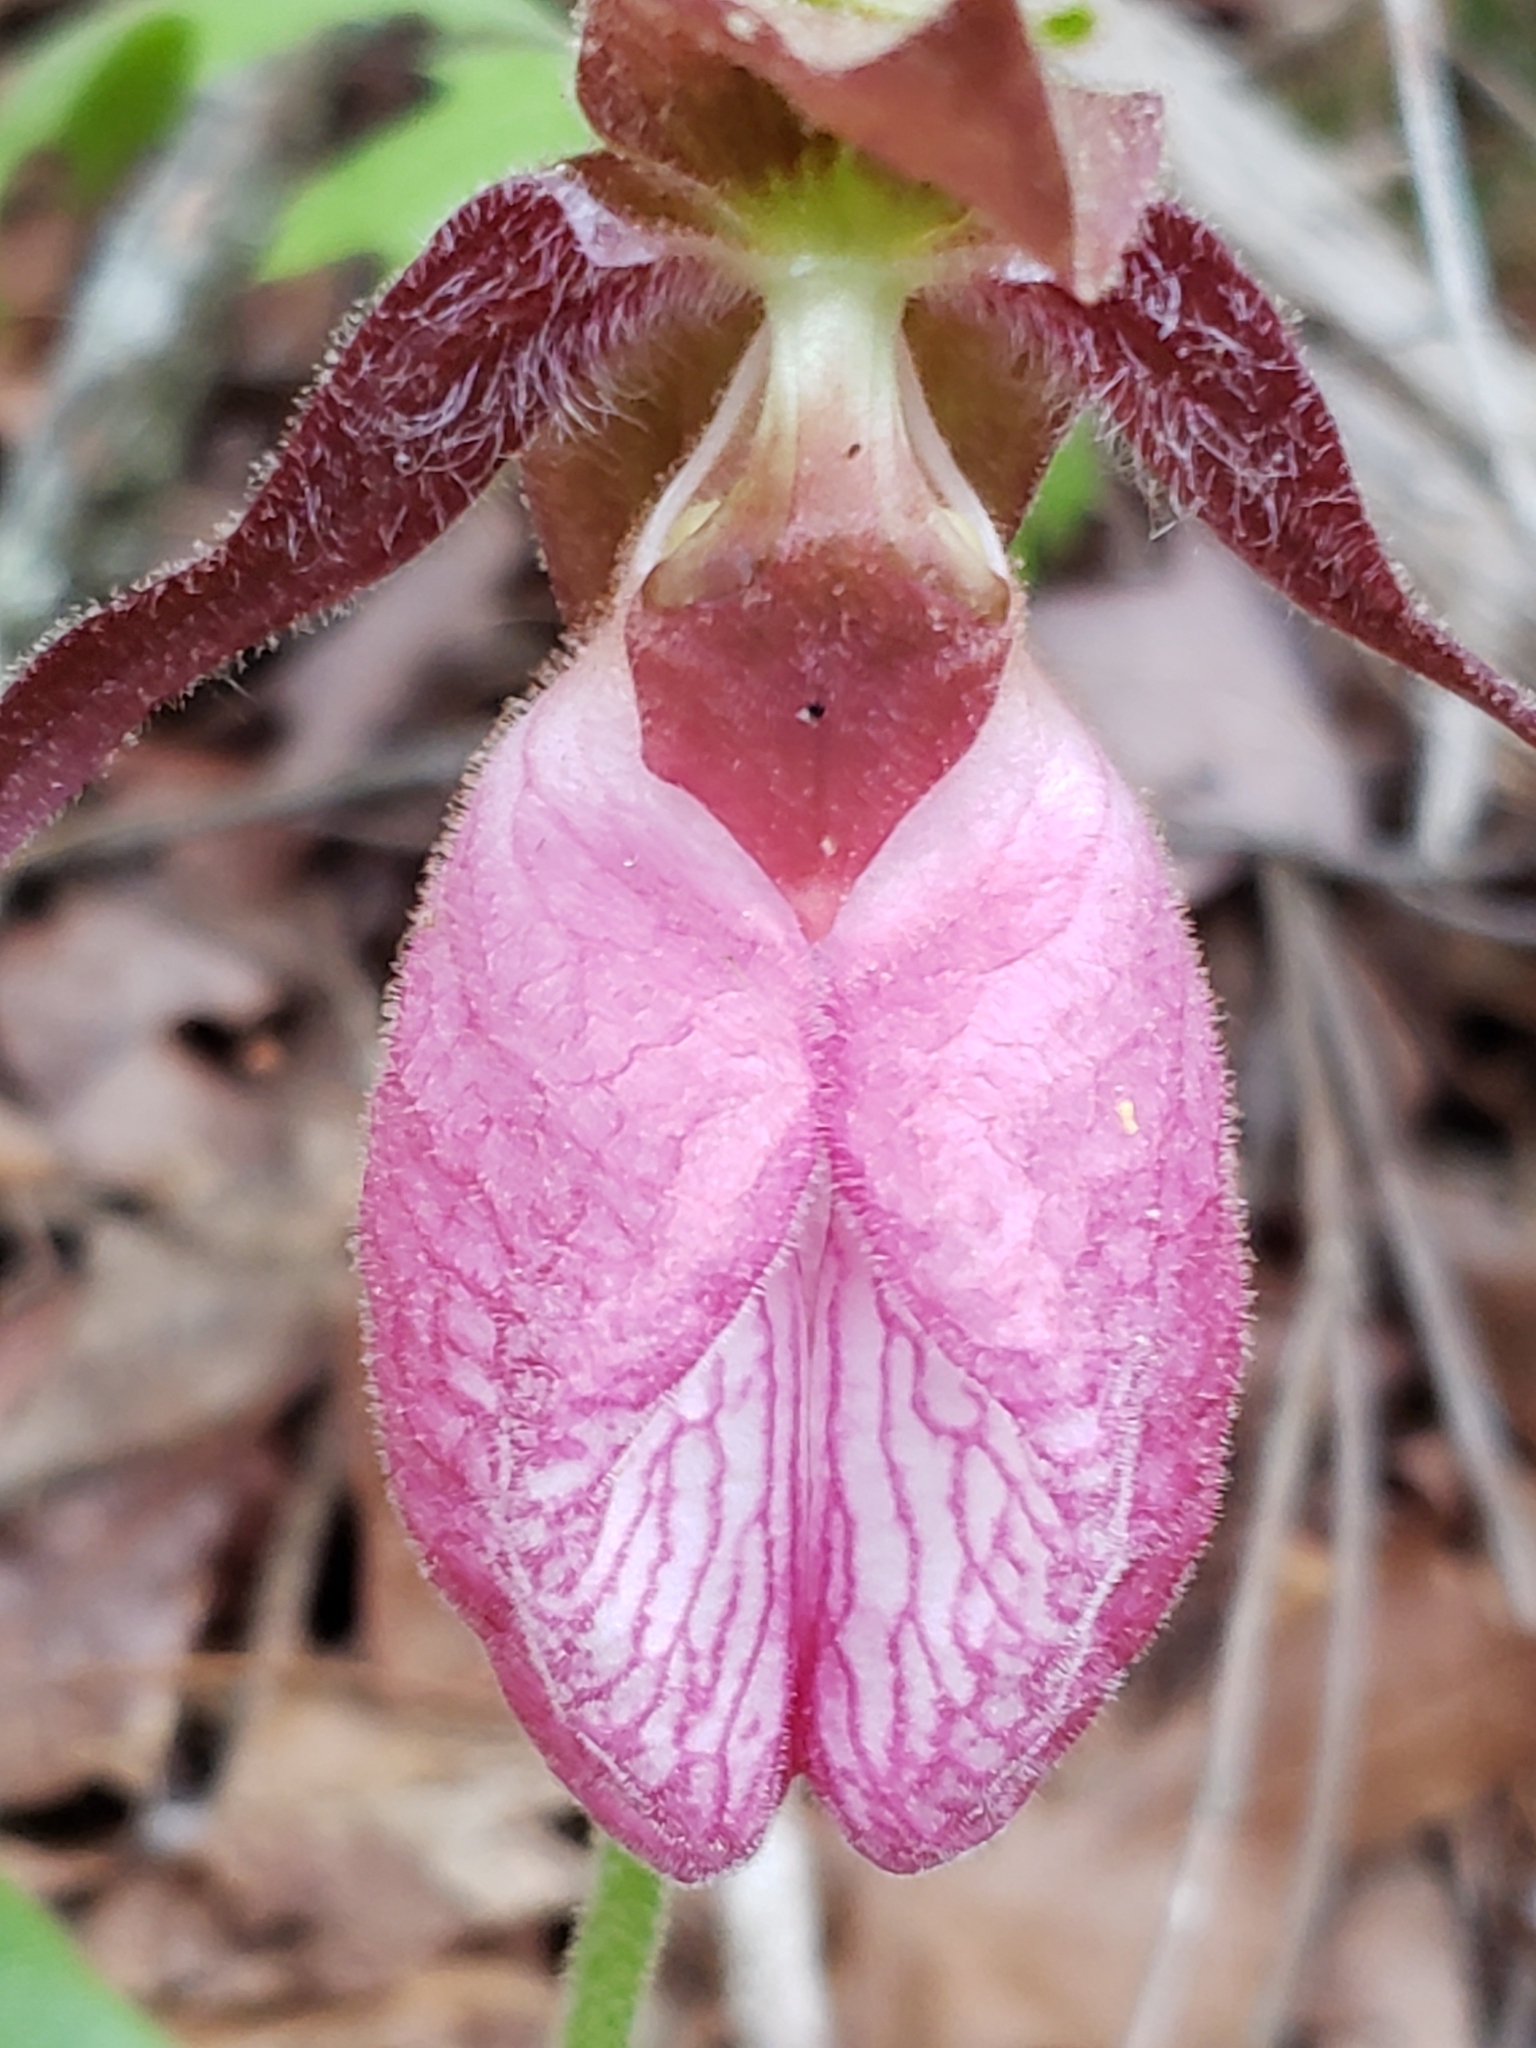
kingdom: Plantae
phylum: Tracheophyta
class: Liliopsida
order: Asparagales
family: Orchidaceae
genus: Cypripedium
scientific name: Cypripedium acaule
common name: Pink lady's-slipper
